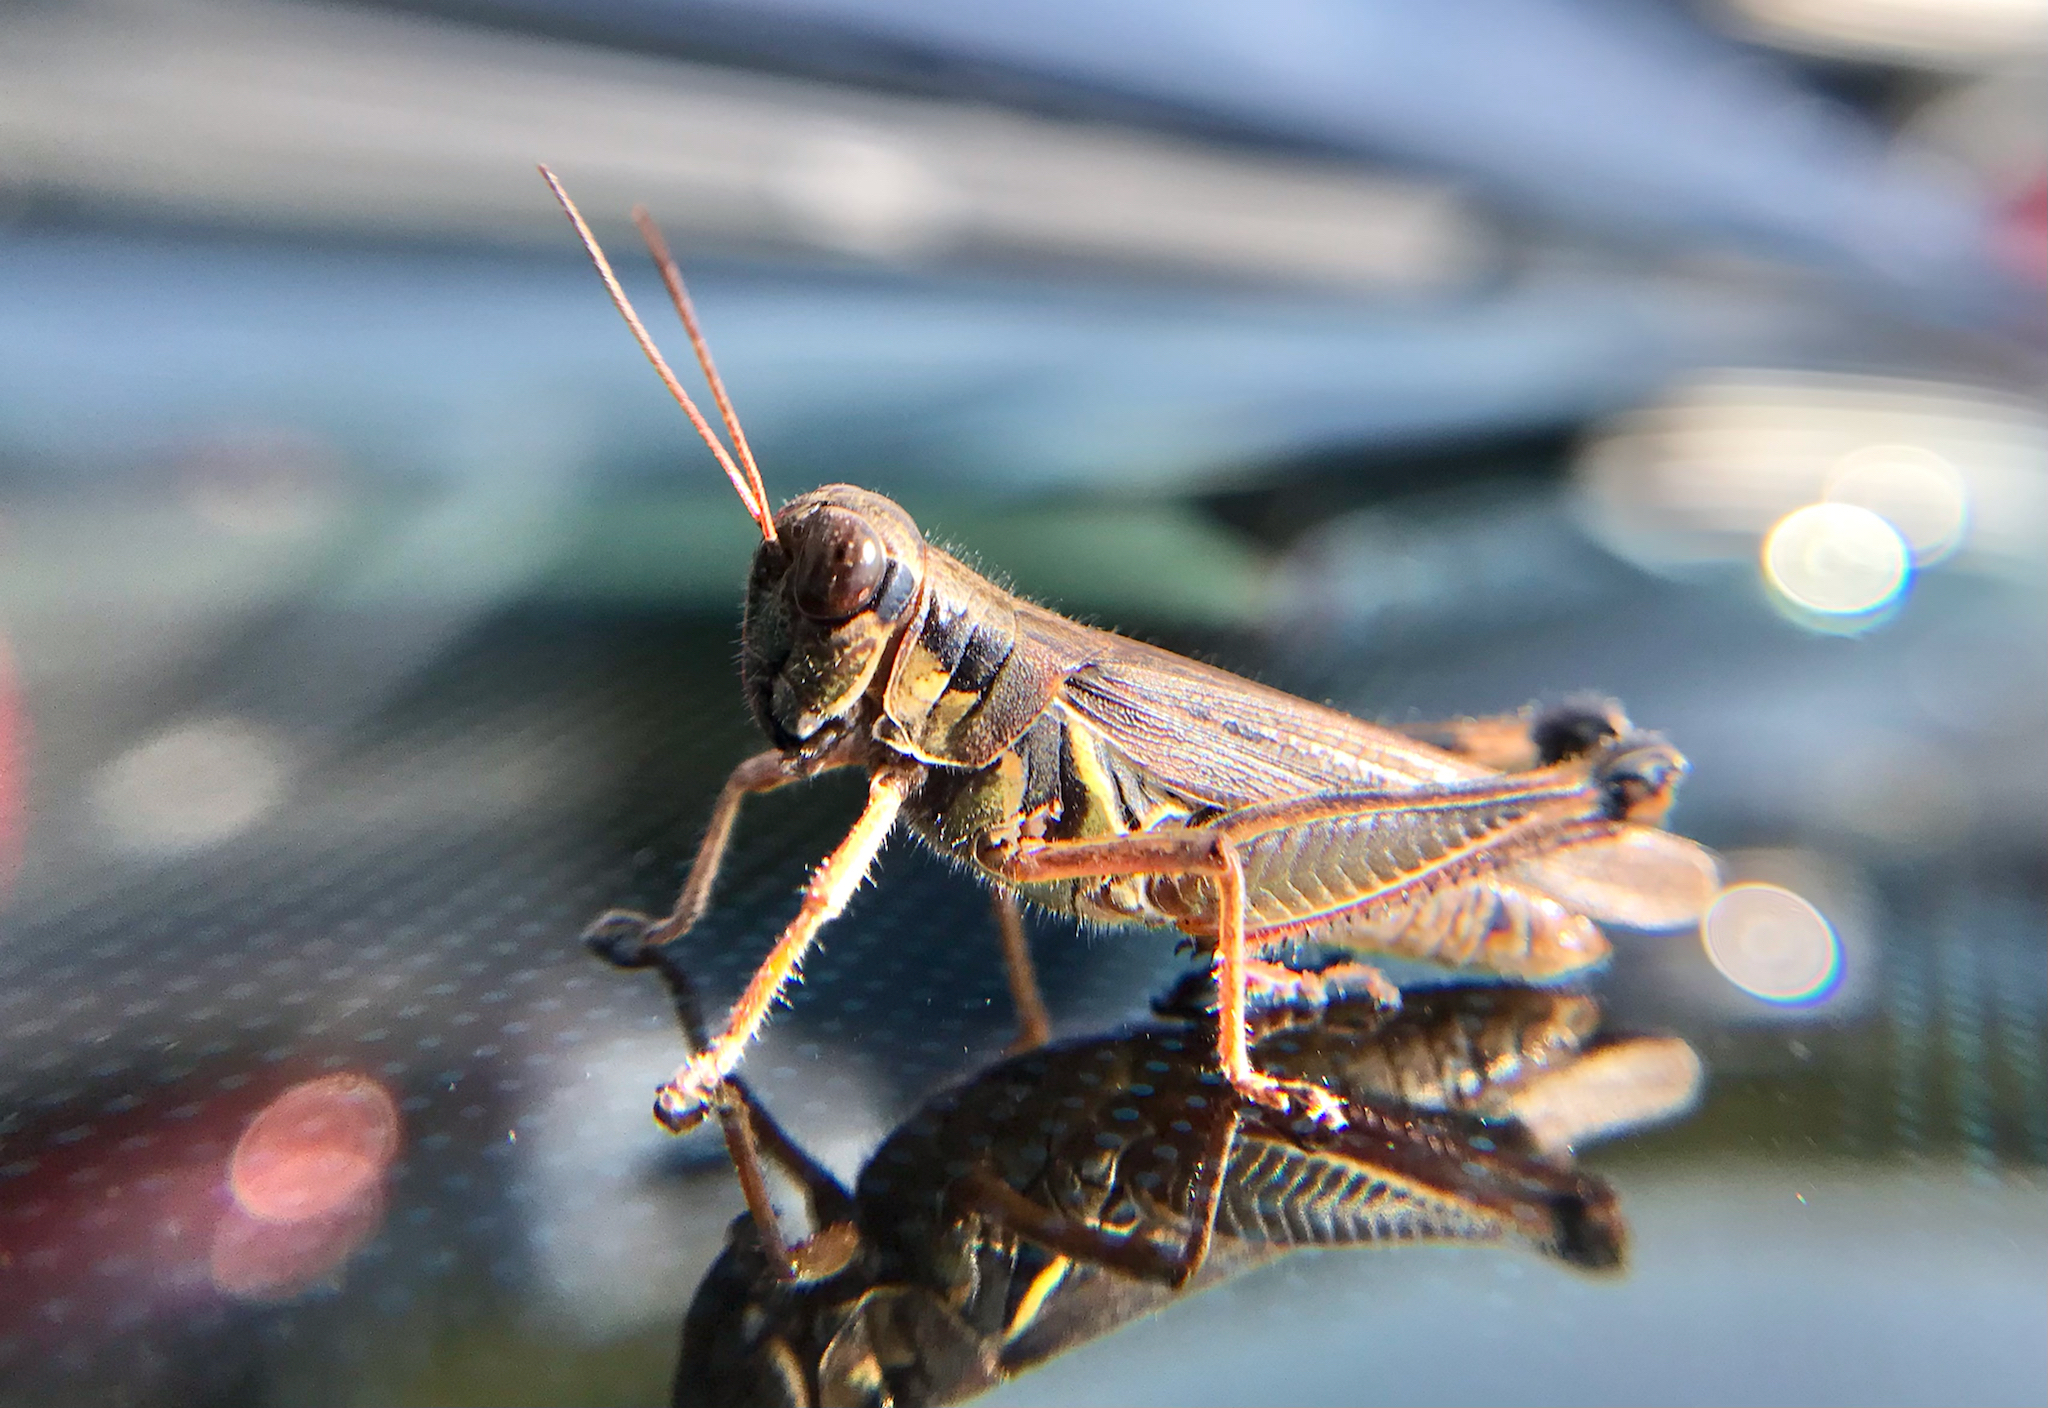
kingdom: Animalia
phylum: Arthropoda
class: Insecta
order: Orthoptera
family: Acrididae
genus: Melanoplus
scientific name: Melanoplus femurrubrum
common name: Red-legged grasshopper
